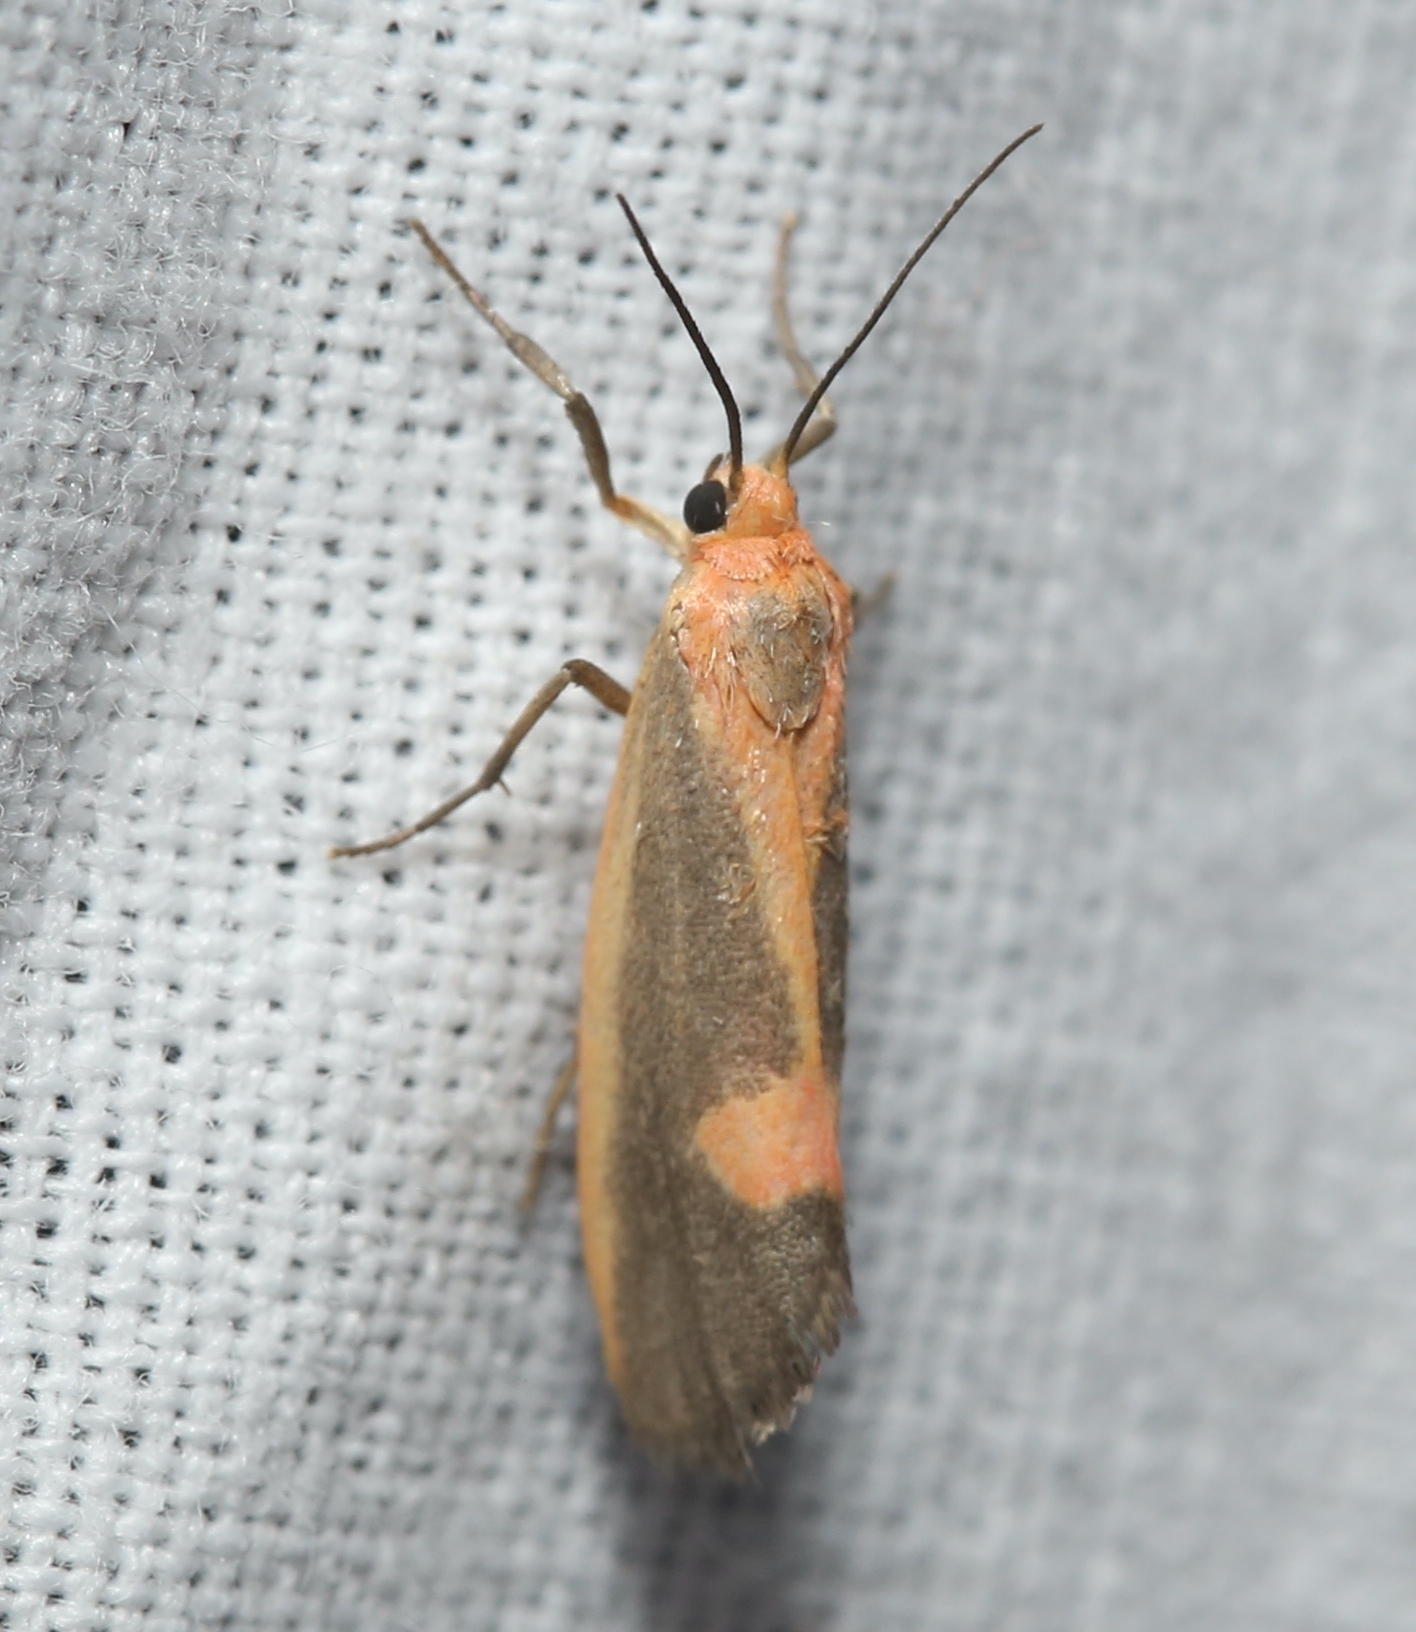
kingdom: Animalia
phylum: Arthropoda
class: Insecta
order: Lepidoptera
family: Erebidae
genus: Cisthene
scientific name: Cisthene plumbea
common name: Lead colored lichen moth
